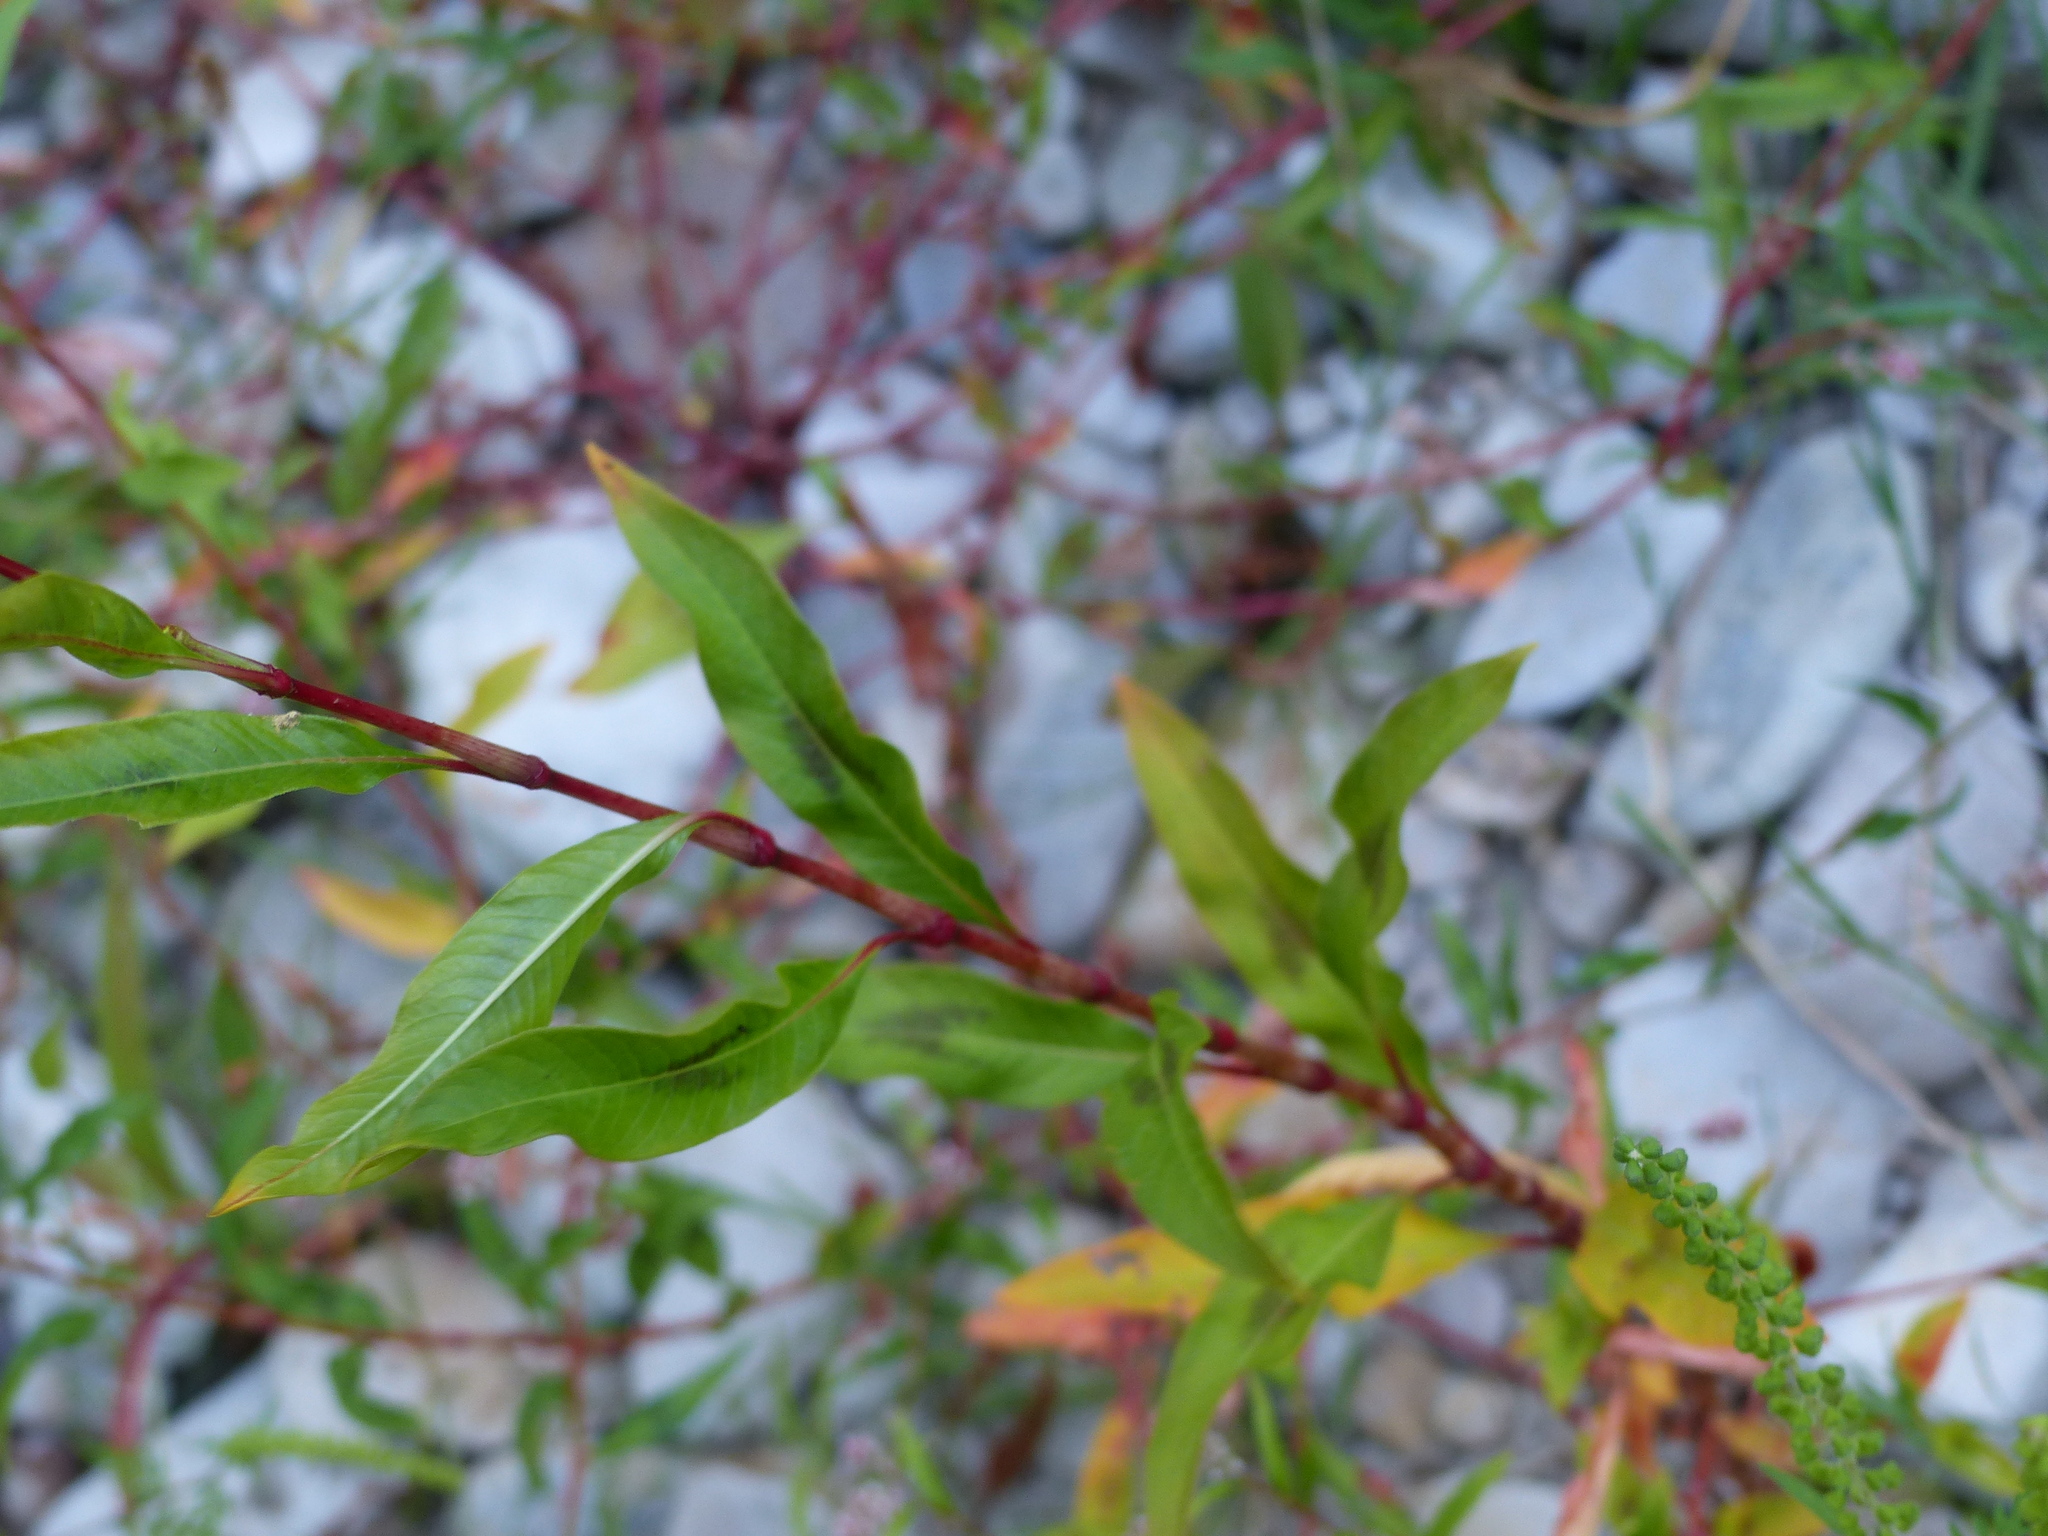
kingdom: Plantae
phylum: Tracheophyta
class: Magnoliopsida
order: Caryophyllales
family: Polygonaceae
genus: Persicaria
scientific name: Persicaria maculosa
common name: Redshank
